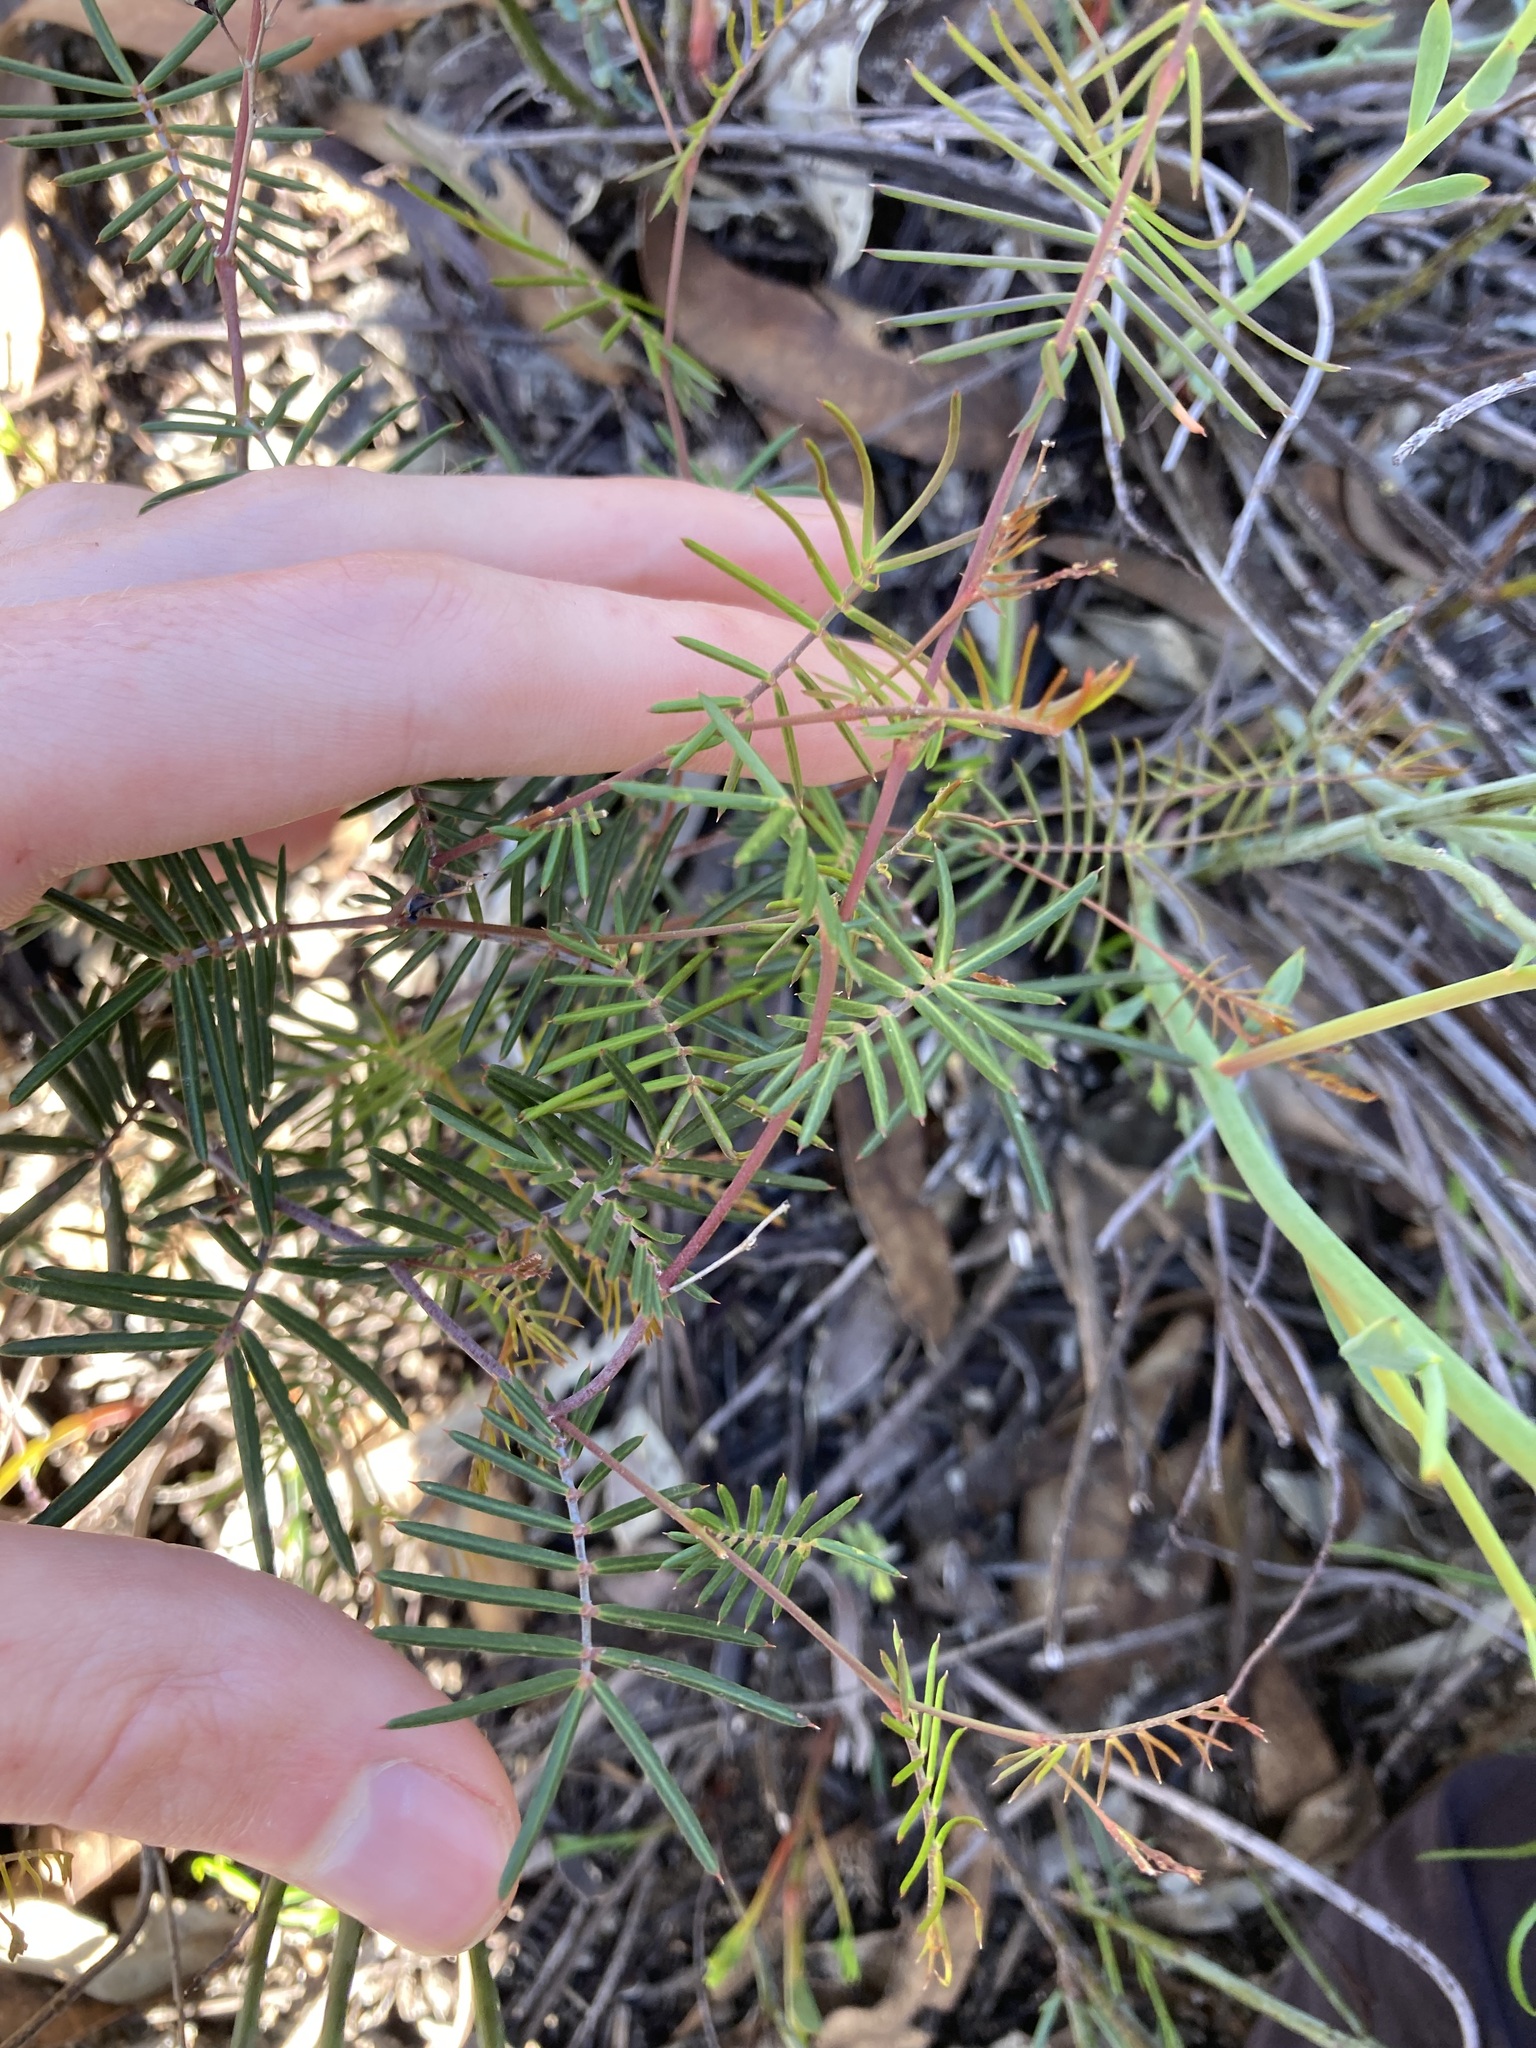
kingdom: Plantae
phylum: Tracheophyta
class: Magnoliopsida
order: Fabales
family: Fabaceae
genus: Gompholobium
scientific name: Gompholobium pungens
